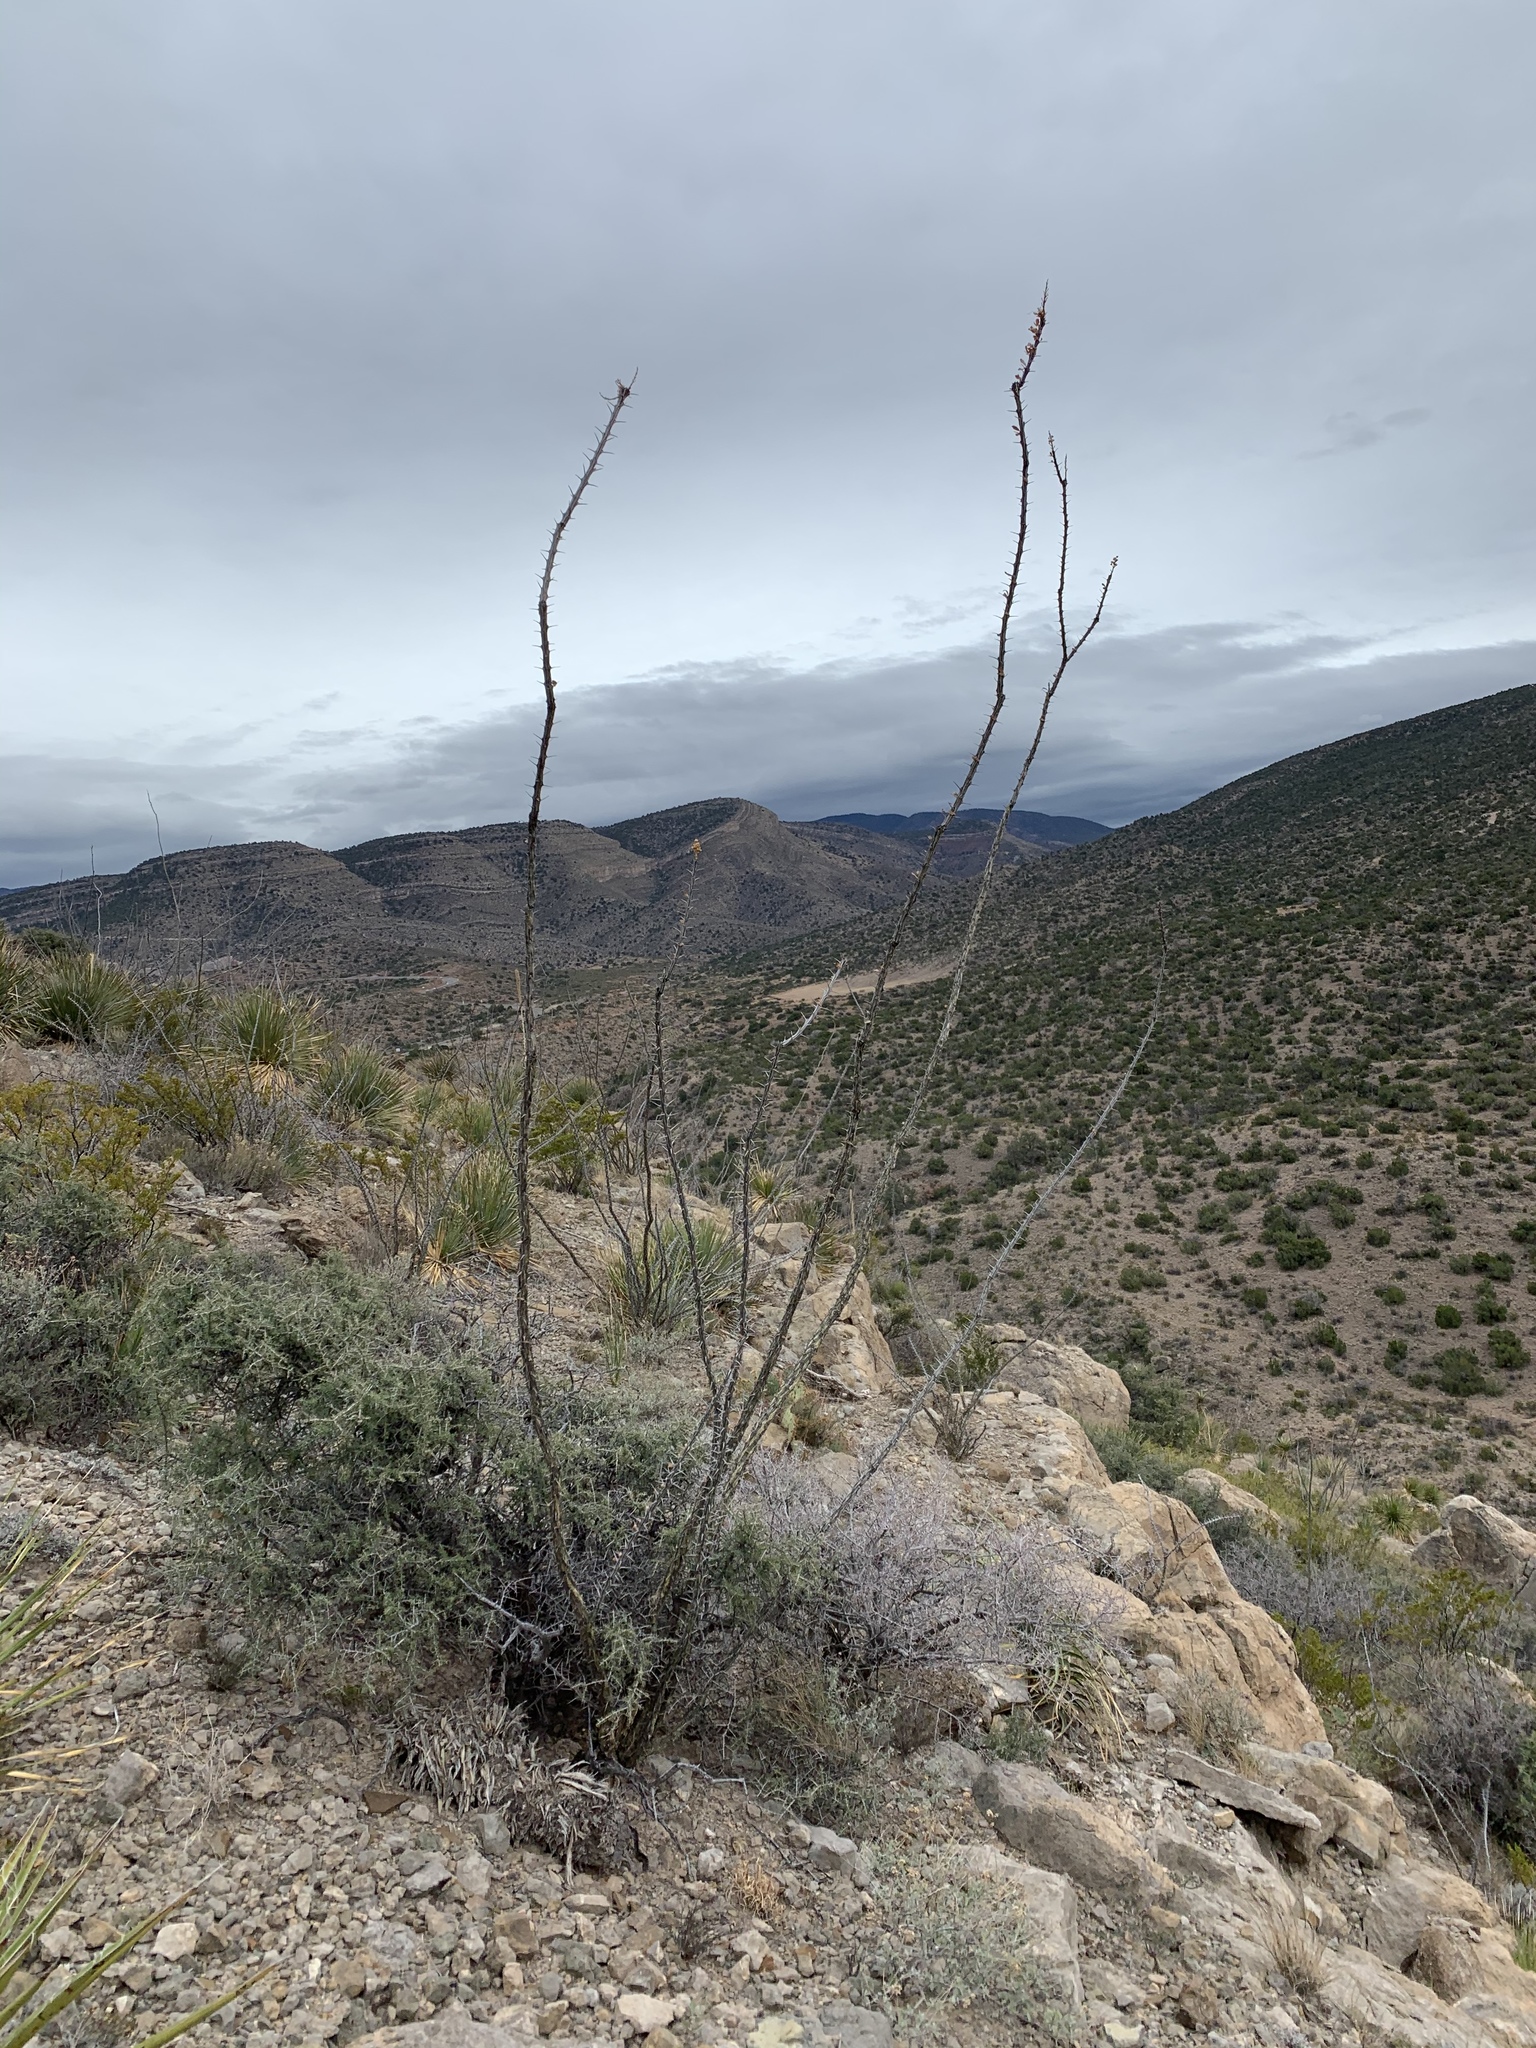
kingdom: Plantae
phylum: Tracheophyta
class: Magnoliopsida
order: Ericales
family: Fouquieriaceae
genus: Fouquieria
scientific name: Fouquieria splendens
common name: Vine-cactus
